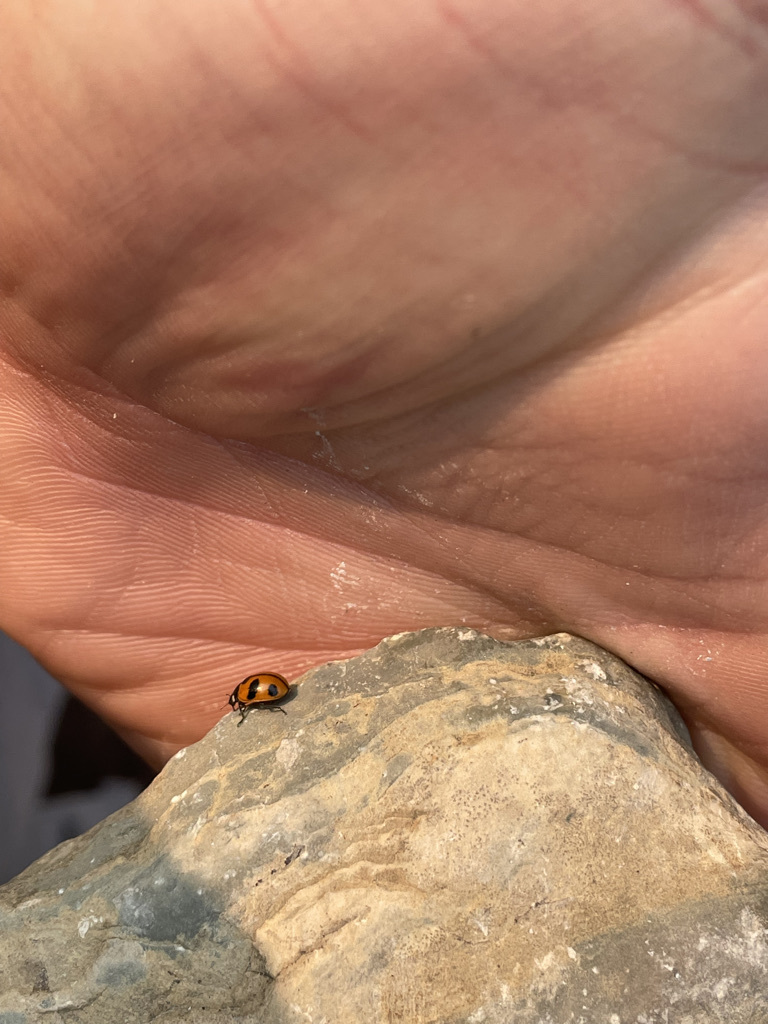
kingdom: Animalia
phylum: Arthropoda
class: Insecta
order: Coleoptera
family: Coccinellidae
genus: Coccinella
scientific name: Coccinella alta
